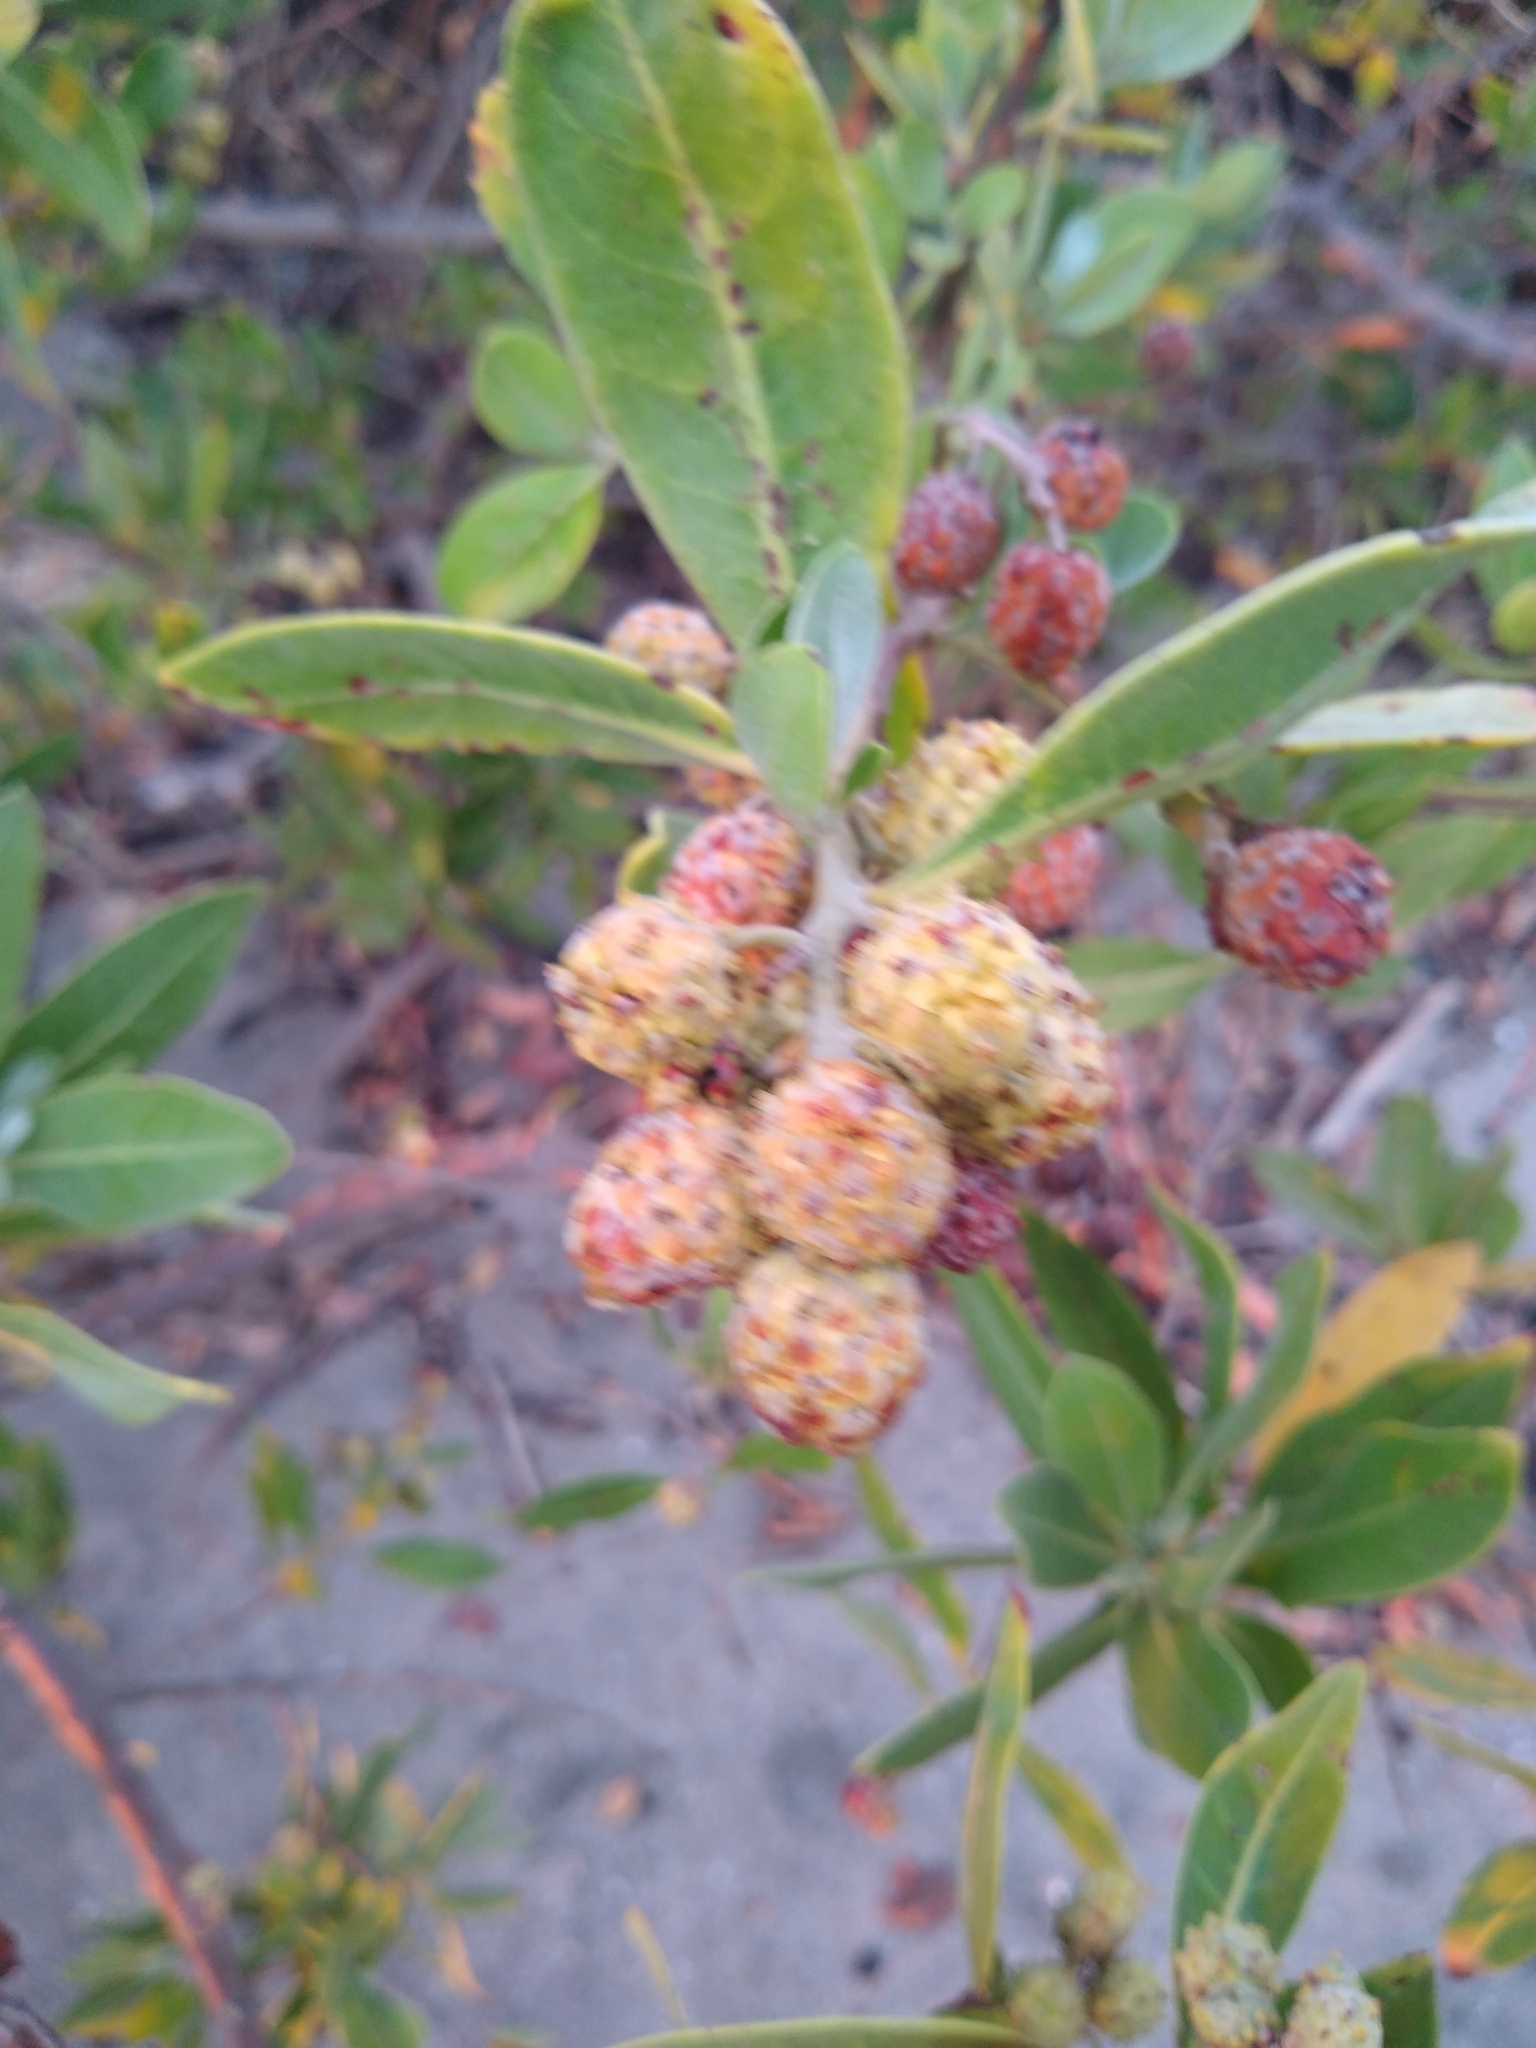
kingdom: Plantae
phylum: Tracheophyta
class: Magnoliopsida
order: Myrtales
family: Combretaceae
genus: Conocarpus
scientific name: Conocarpus erectus
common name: Button mangrove
